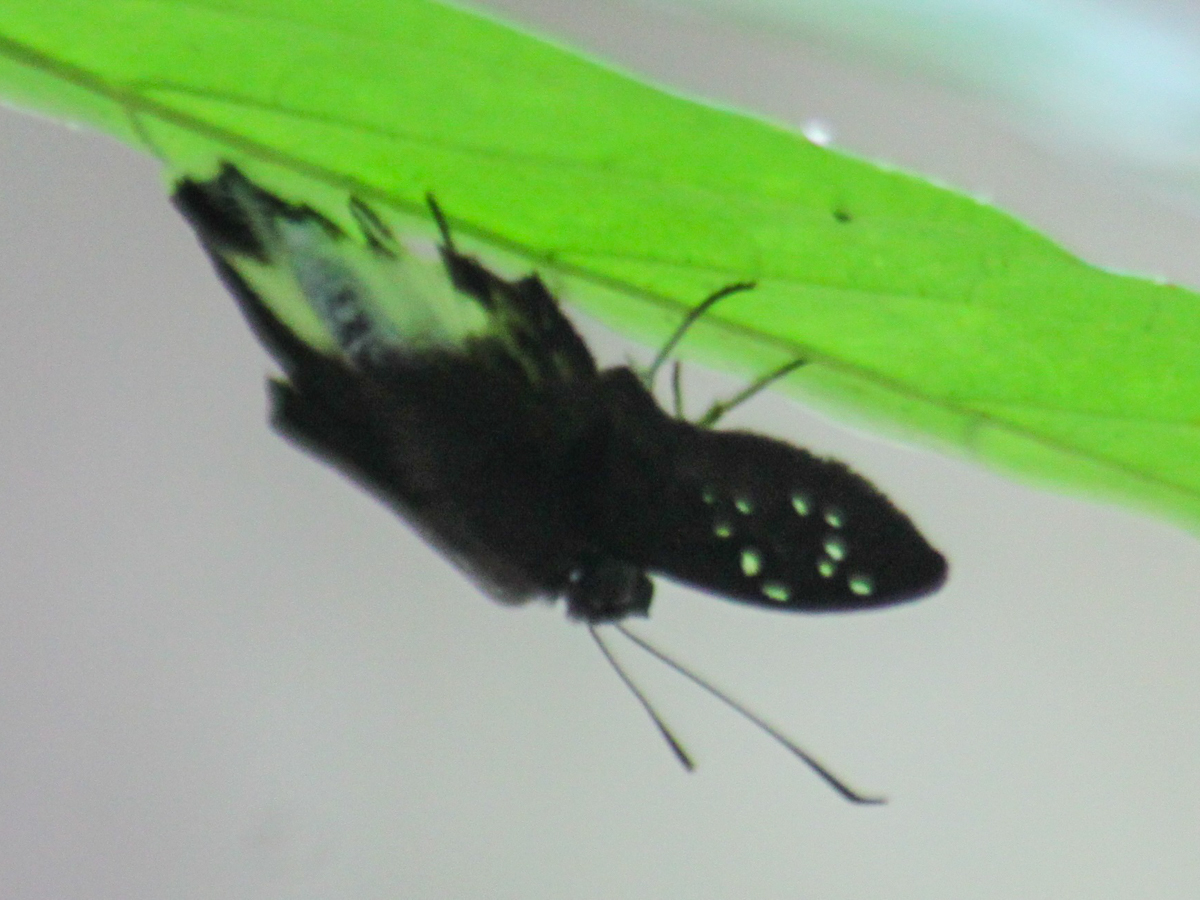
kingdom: Animalia
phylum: Arthropoda
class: Insecta
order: Lepidoptera
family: Hesperiidae
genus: Tagiades
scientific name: Tagiades litigiosa
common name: Water snow flat
